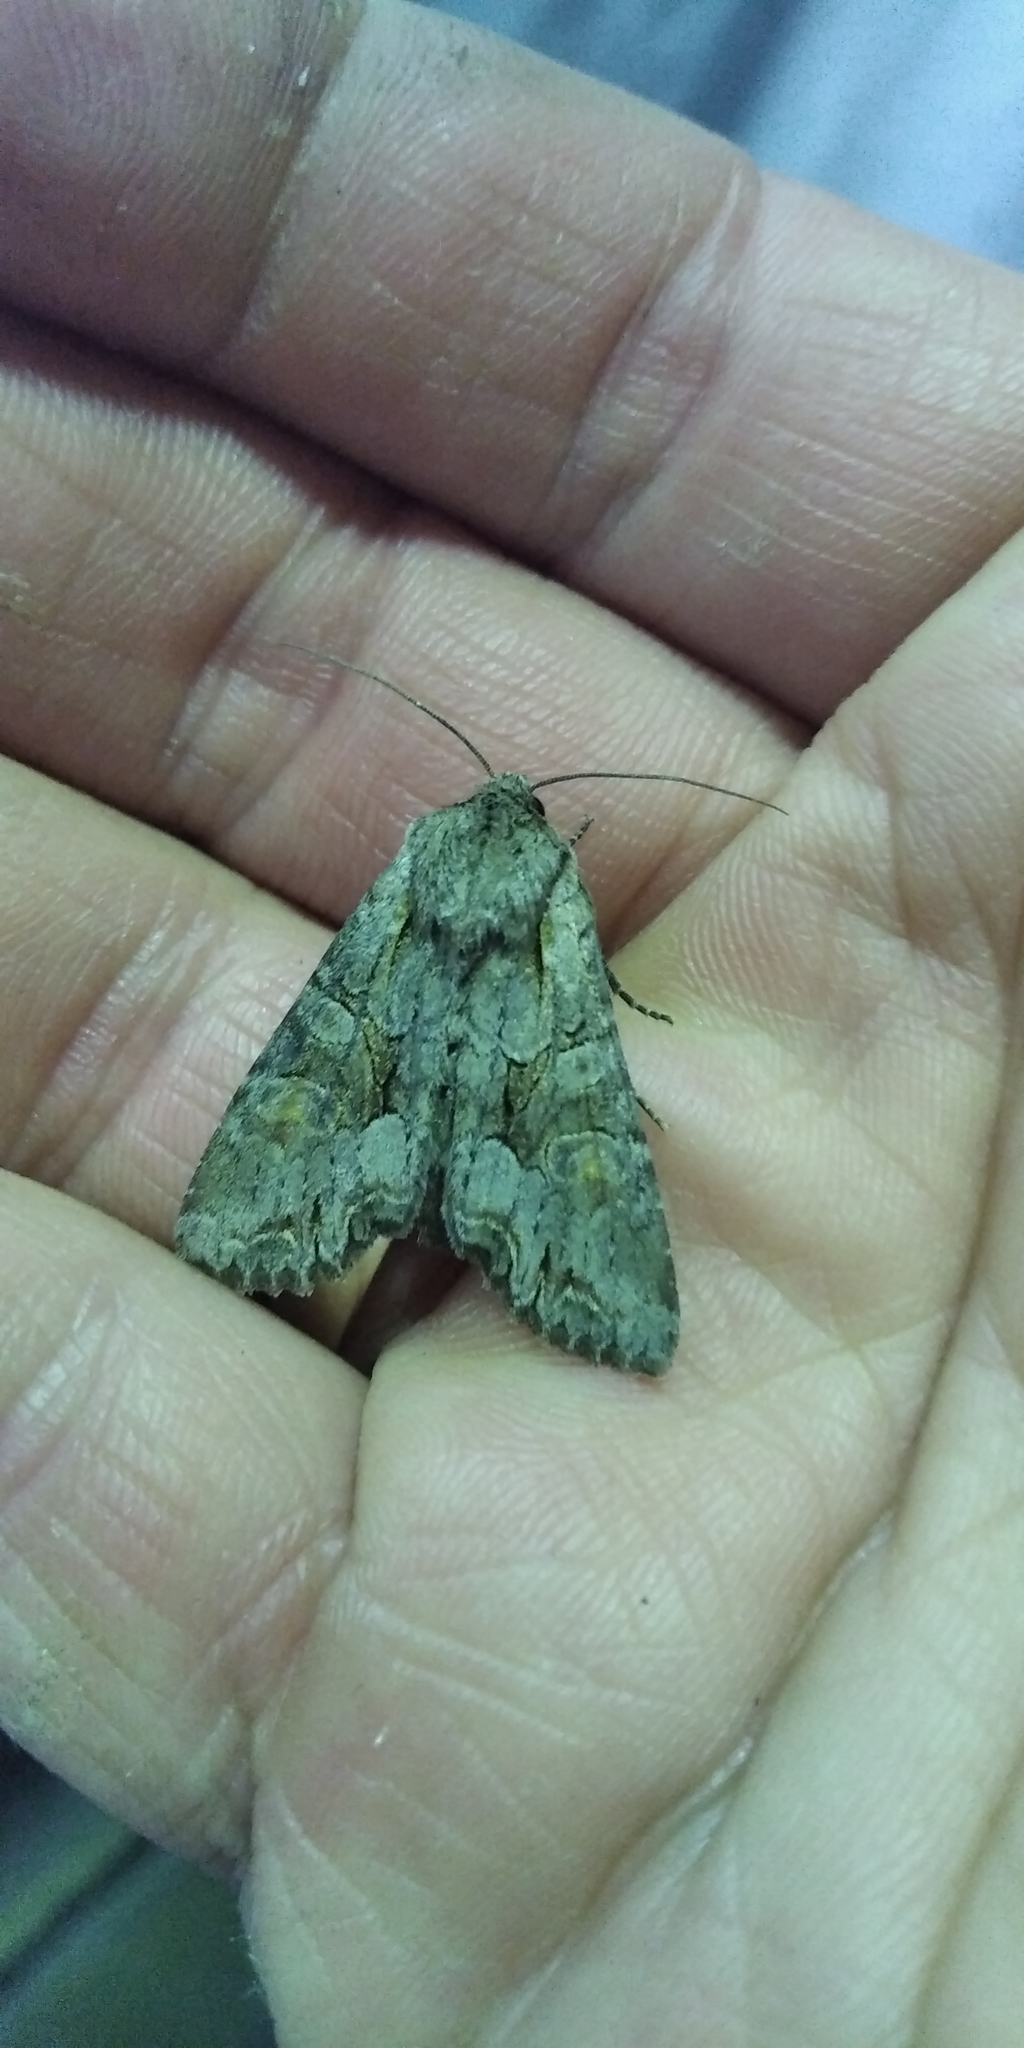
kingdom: Animalia
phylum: Arthropoda
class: Insecta
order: Lepidoptera
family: Noctuidae
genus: Lacanobia
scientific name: Lacanobia w-latinum
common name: Light brocade
